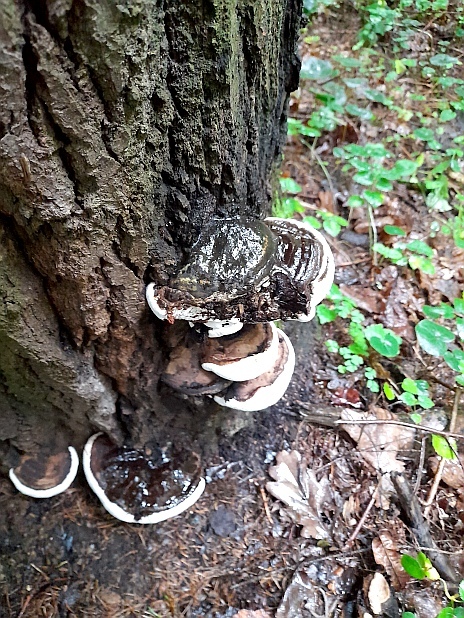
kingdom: Fungi
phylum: Basidiomycota
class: Agaricomycetes
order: Polyporales
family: Fomitopsidaceae
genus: Fomitopsis
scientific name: Fomitopsis pinicola
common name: Red-belted bracket
